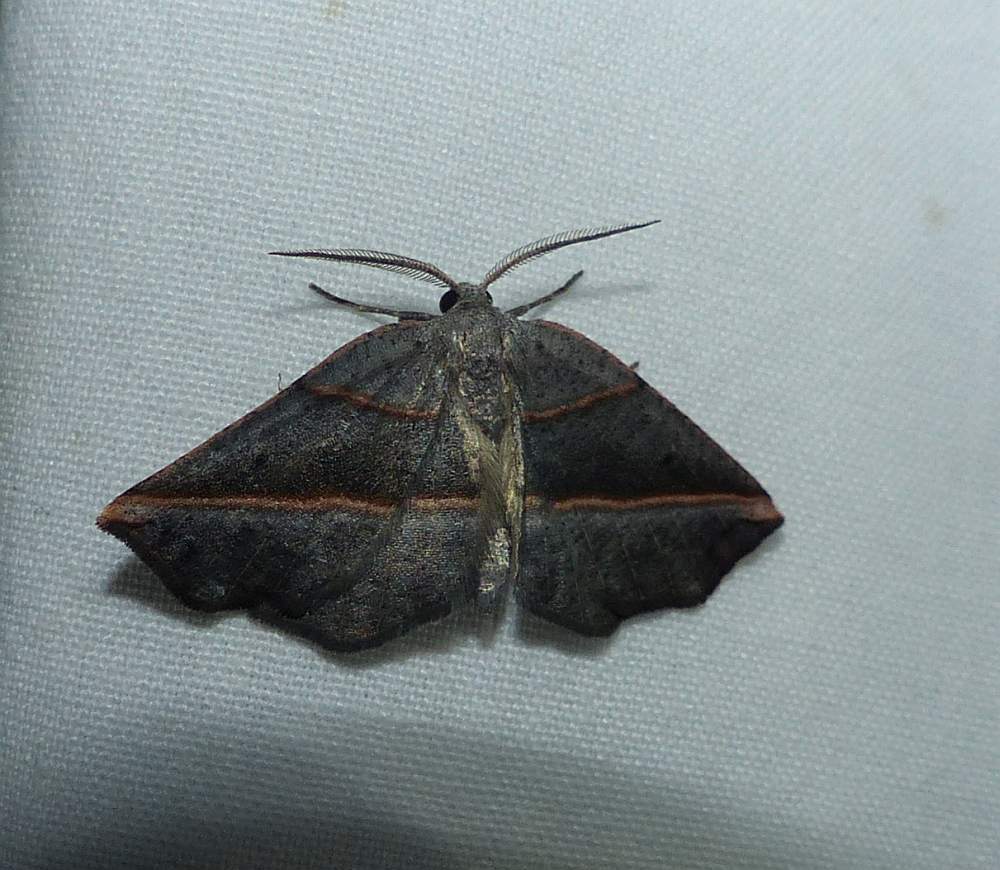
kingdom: Animalia
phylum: Arthropoda
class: Insecta
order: Lepidoptera
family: Geometridae
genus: Metanema
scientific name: Metanema determinata
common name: Dark metanema
